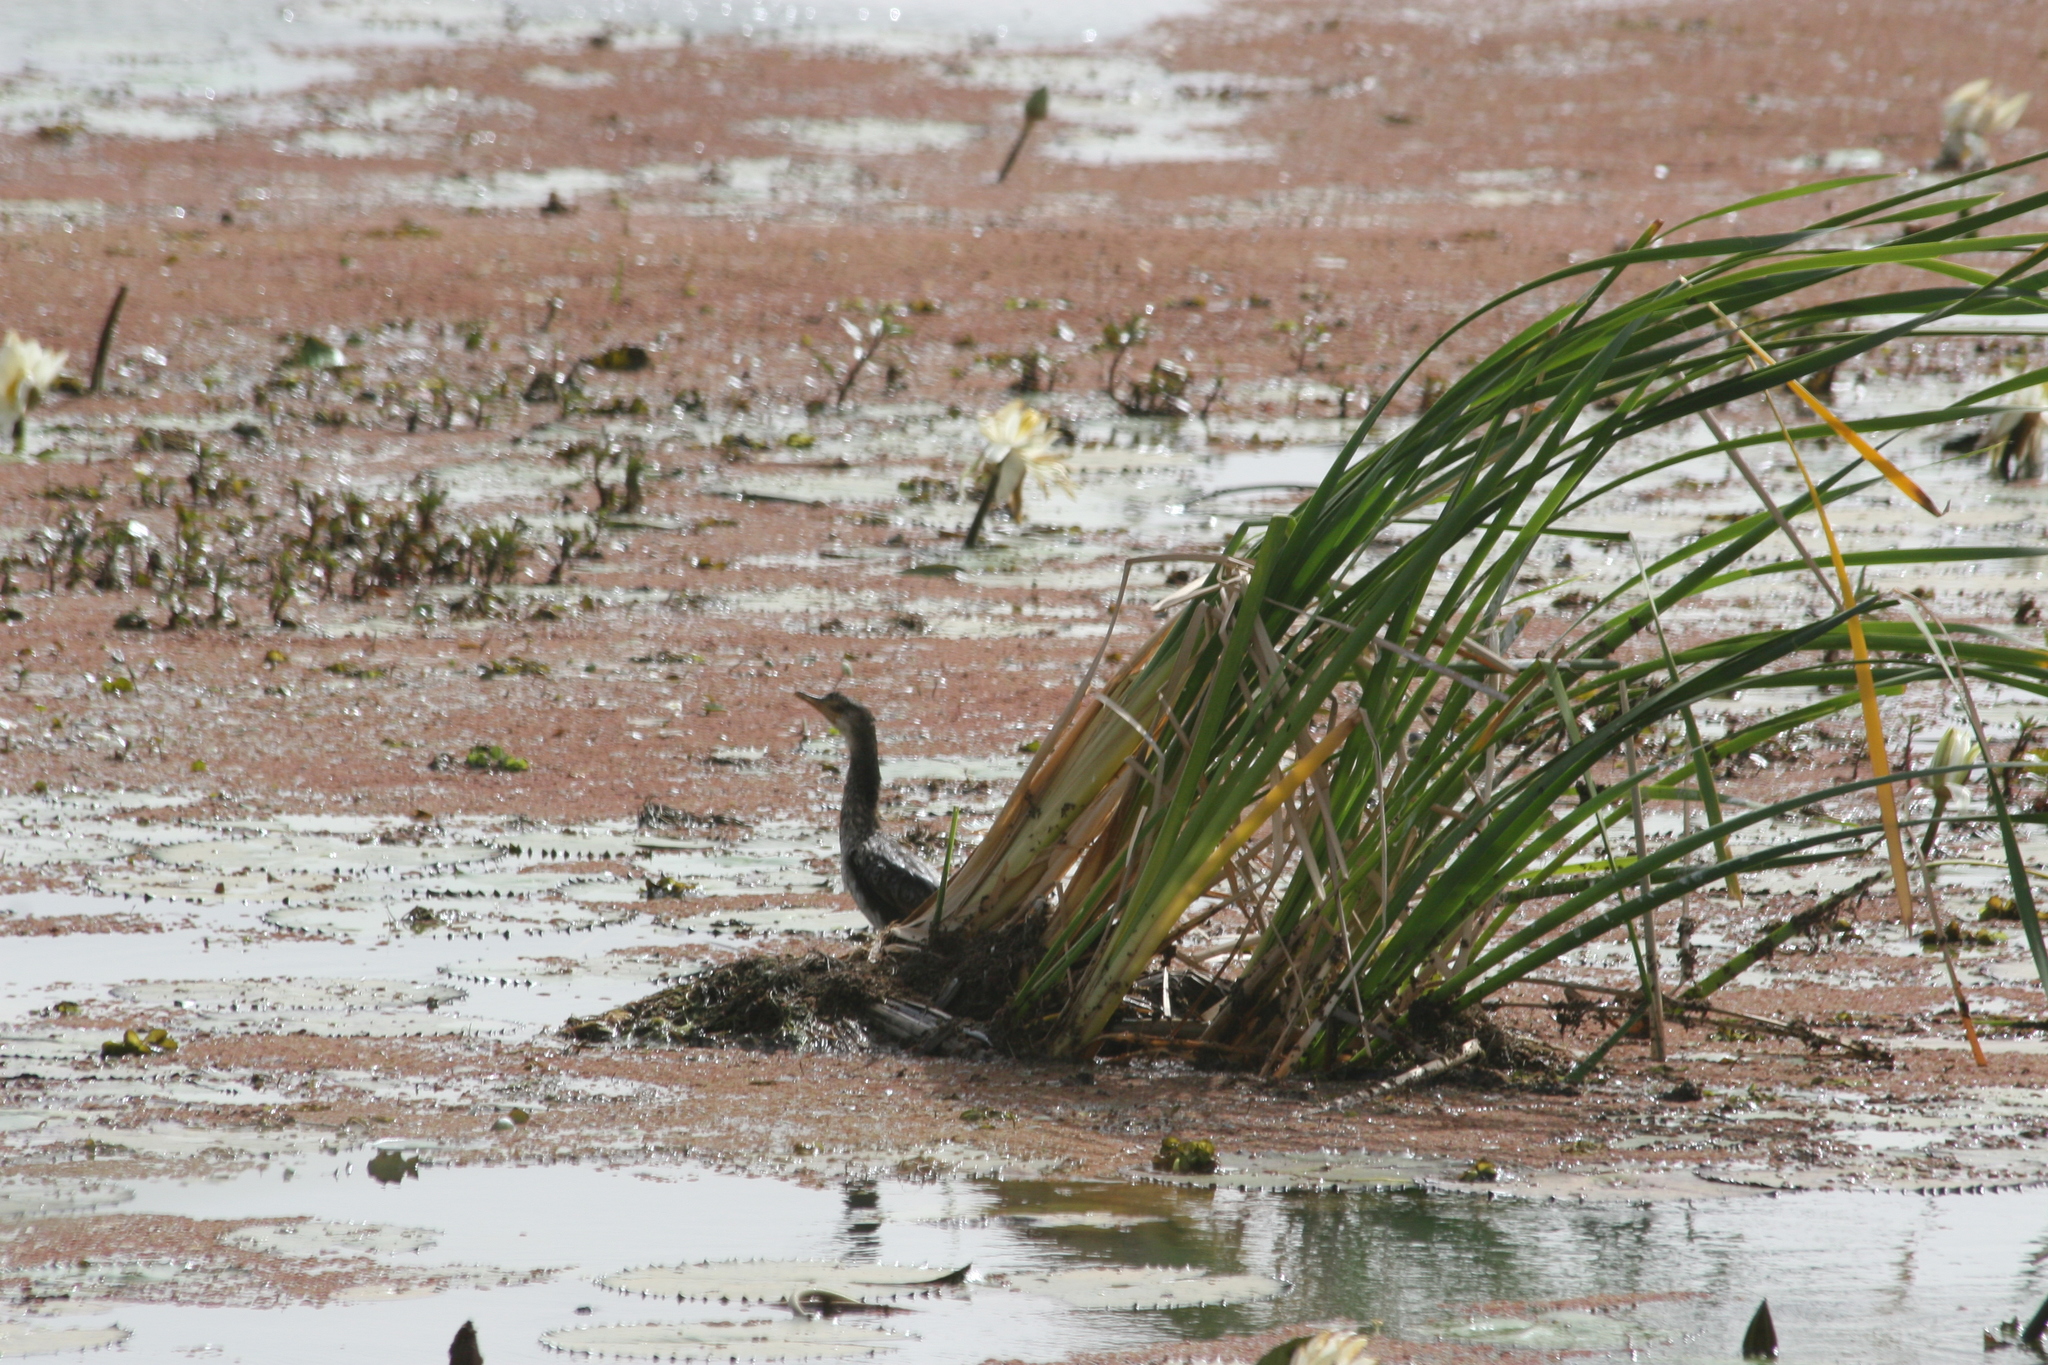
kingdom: Animalia
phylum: Chordata
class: Aves
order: Suliformes
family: Phalacrocoracidae
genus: Microcarbo
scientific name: Microcarbo africanus
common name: Long-tailed cormorant
